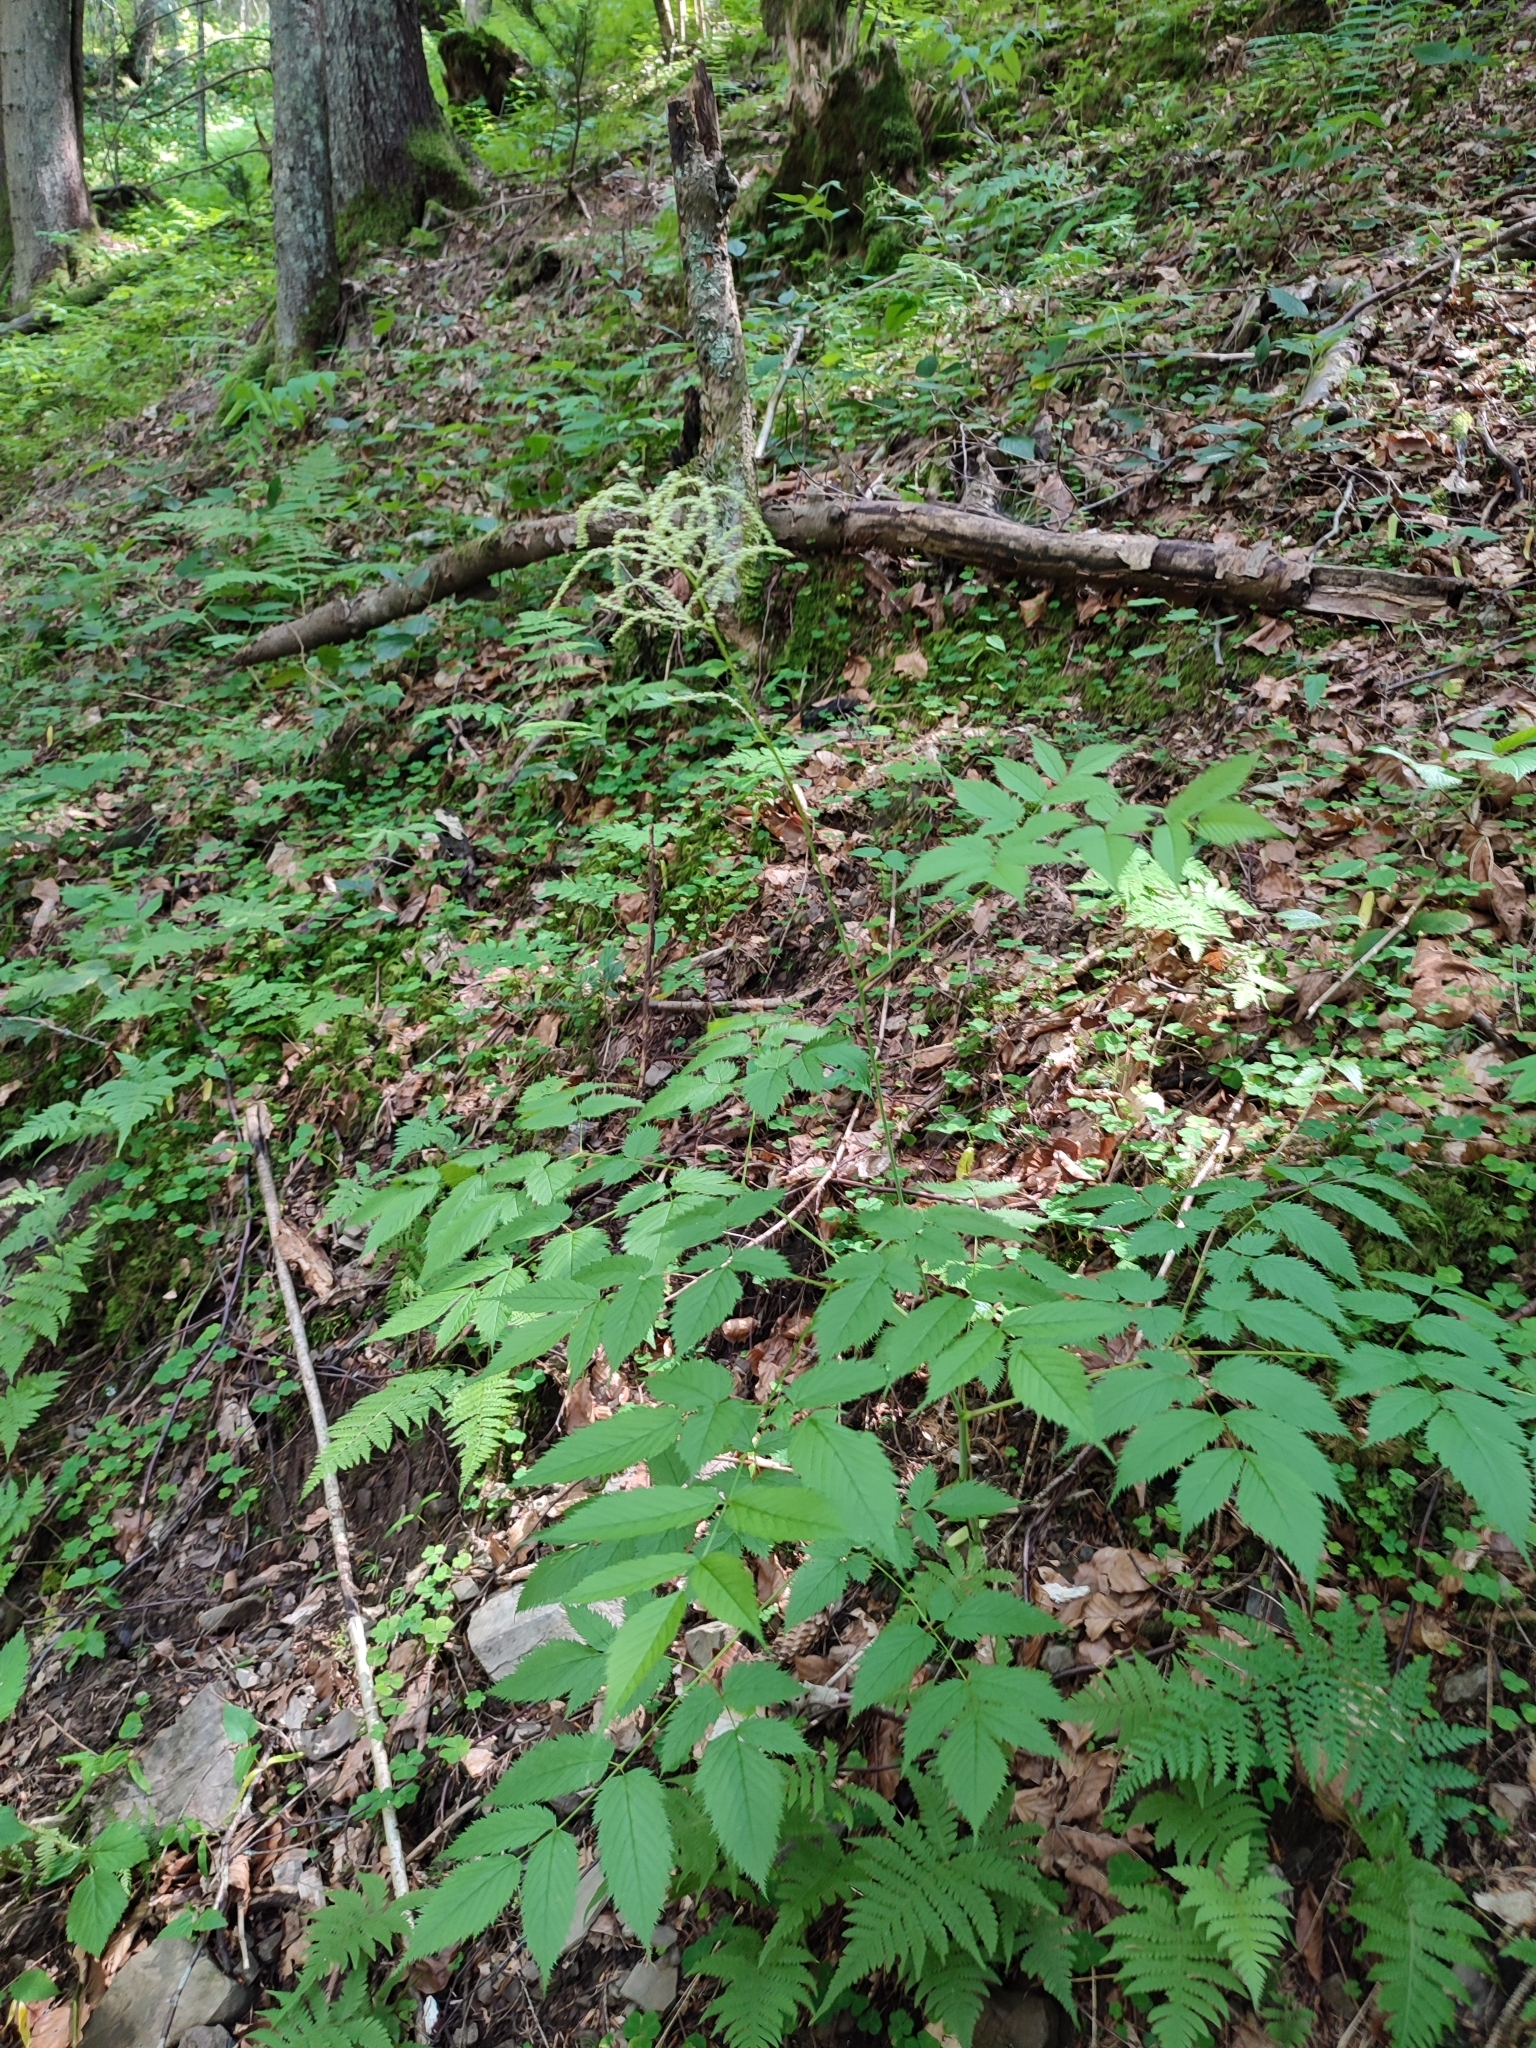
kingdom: Plantae
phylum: Tracheophyta
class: Magnoliopsida
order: Rosales
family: Rosaceae
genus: Aruncus
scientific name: Aruncus dioicus
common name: Buck's-beard
